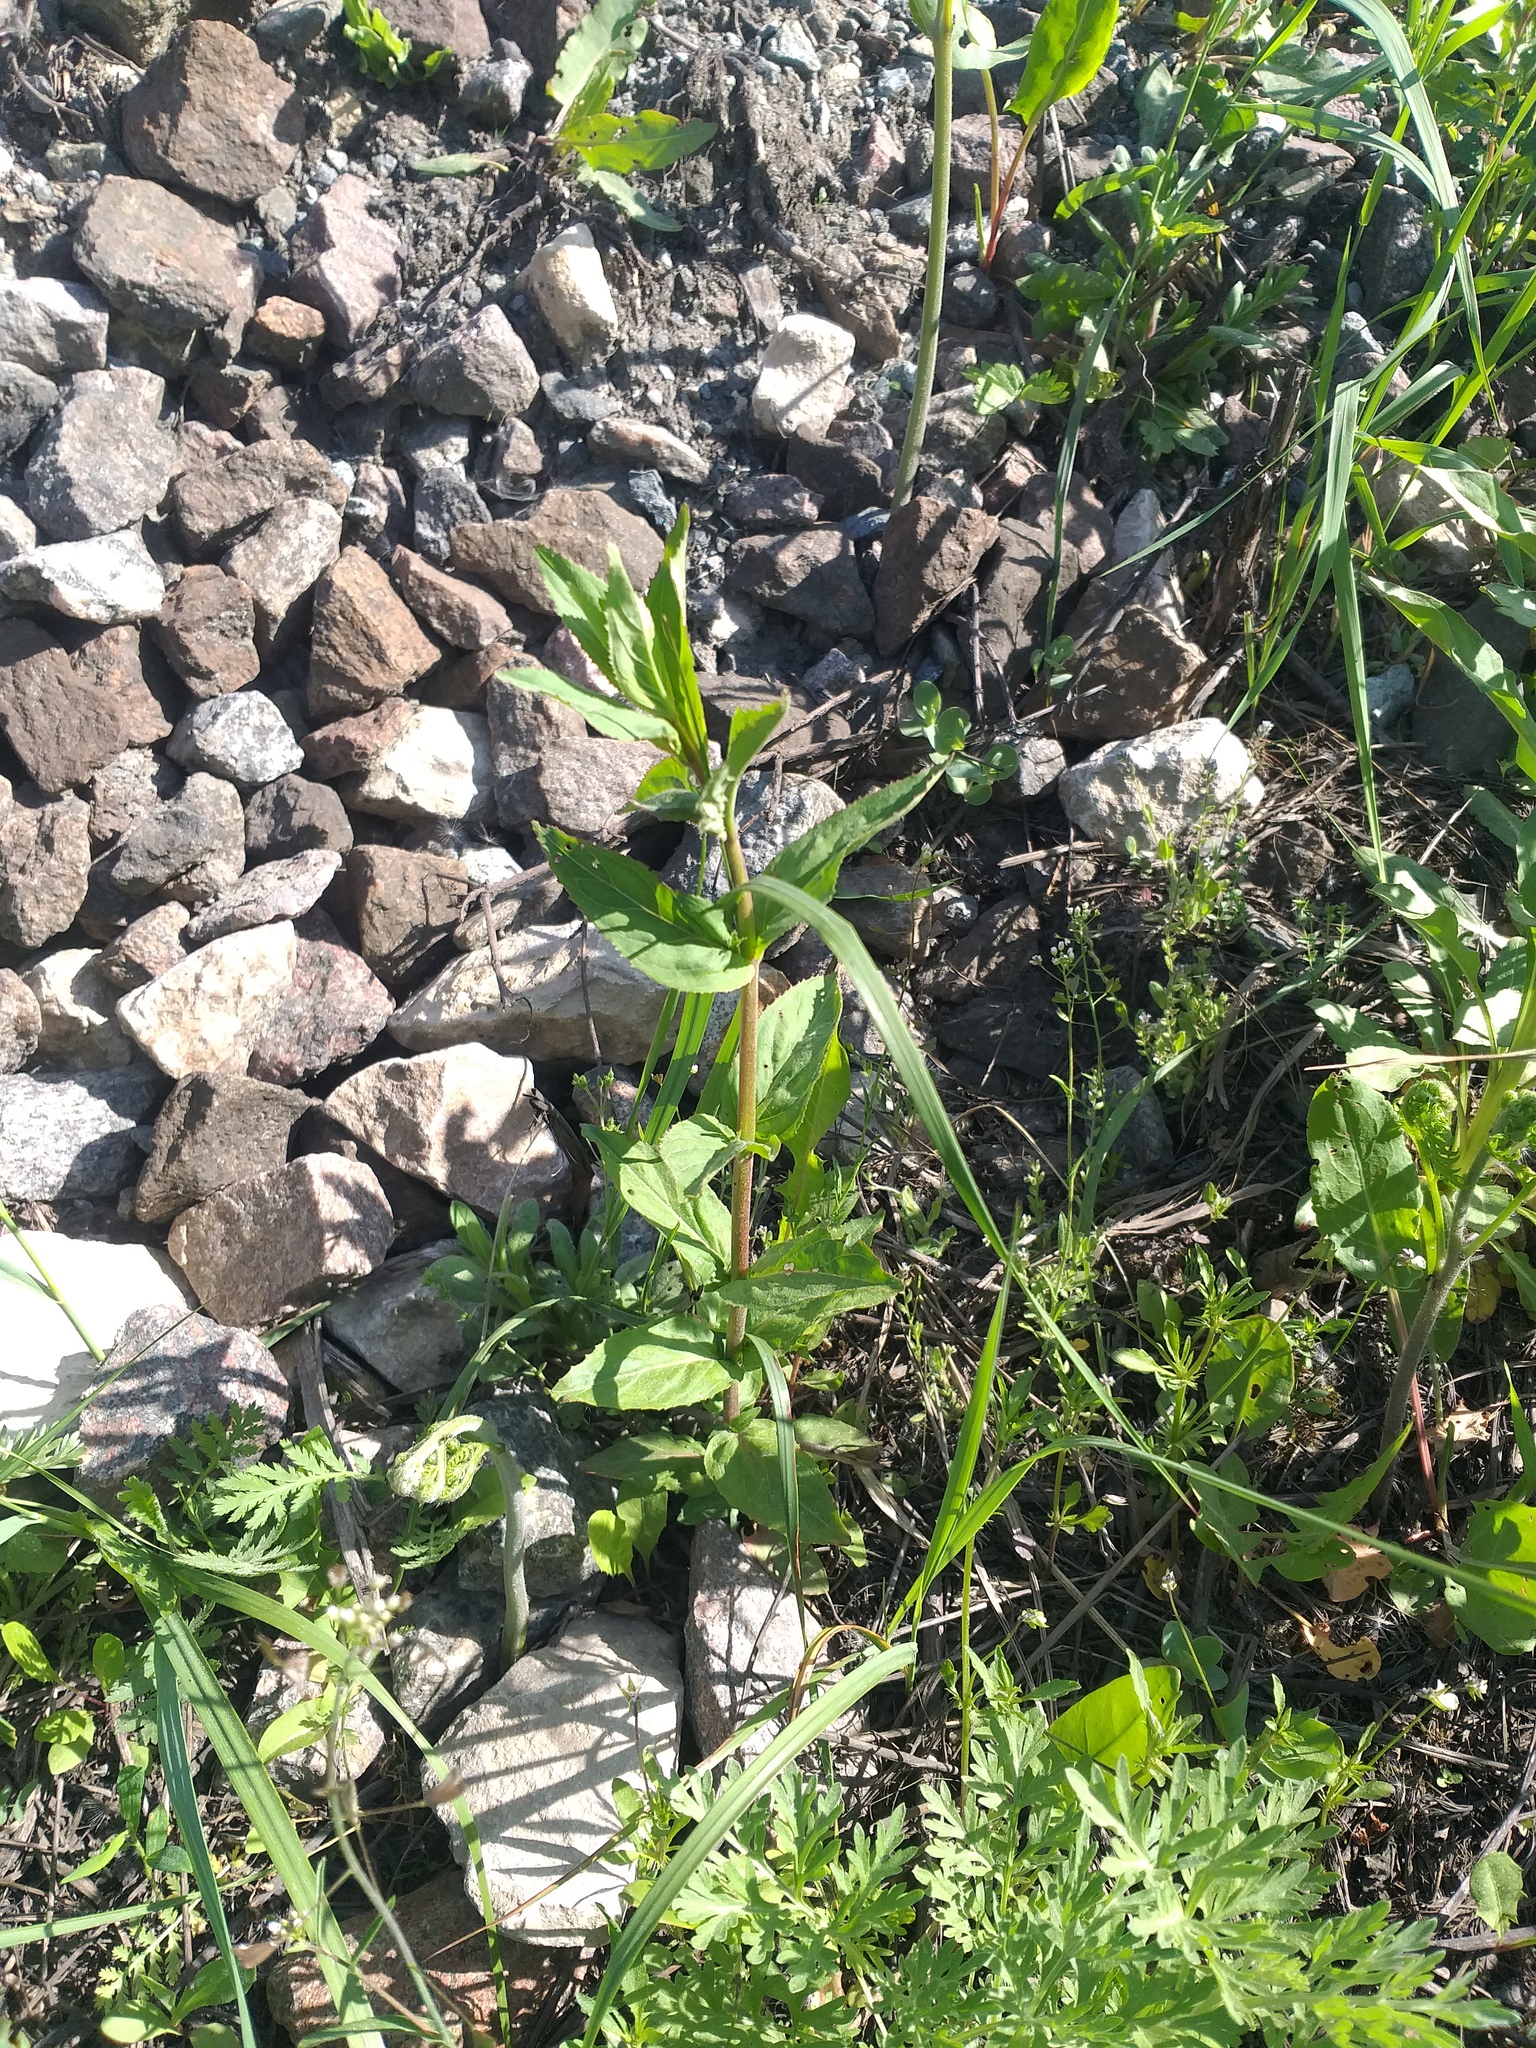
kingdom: Plantae
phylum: Tracheophyta
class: Magnoliopsida
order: Myrtales
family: Onagraceae
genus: Epilobium
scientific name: Epilobium montanum
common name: Broad-leaved willowherb
